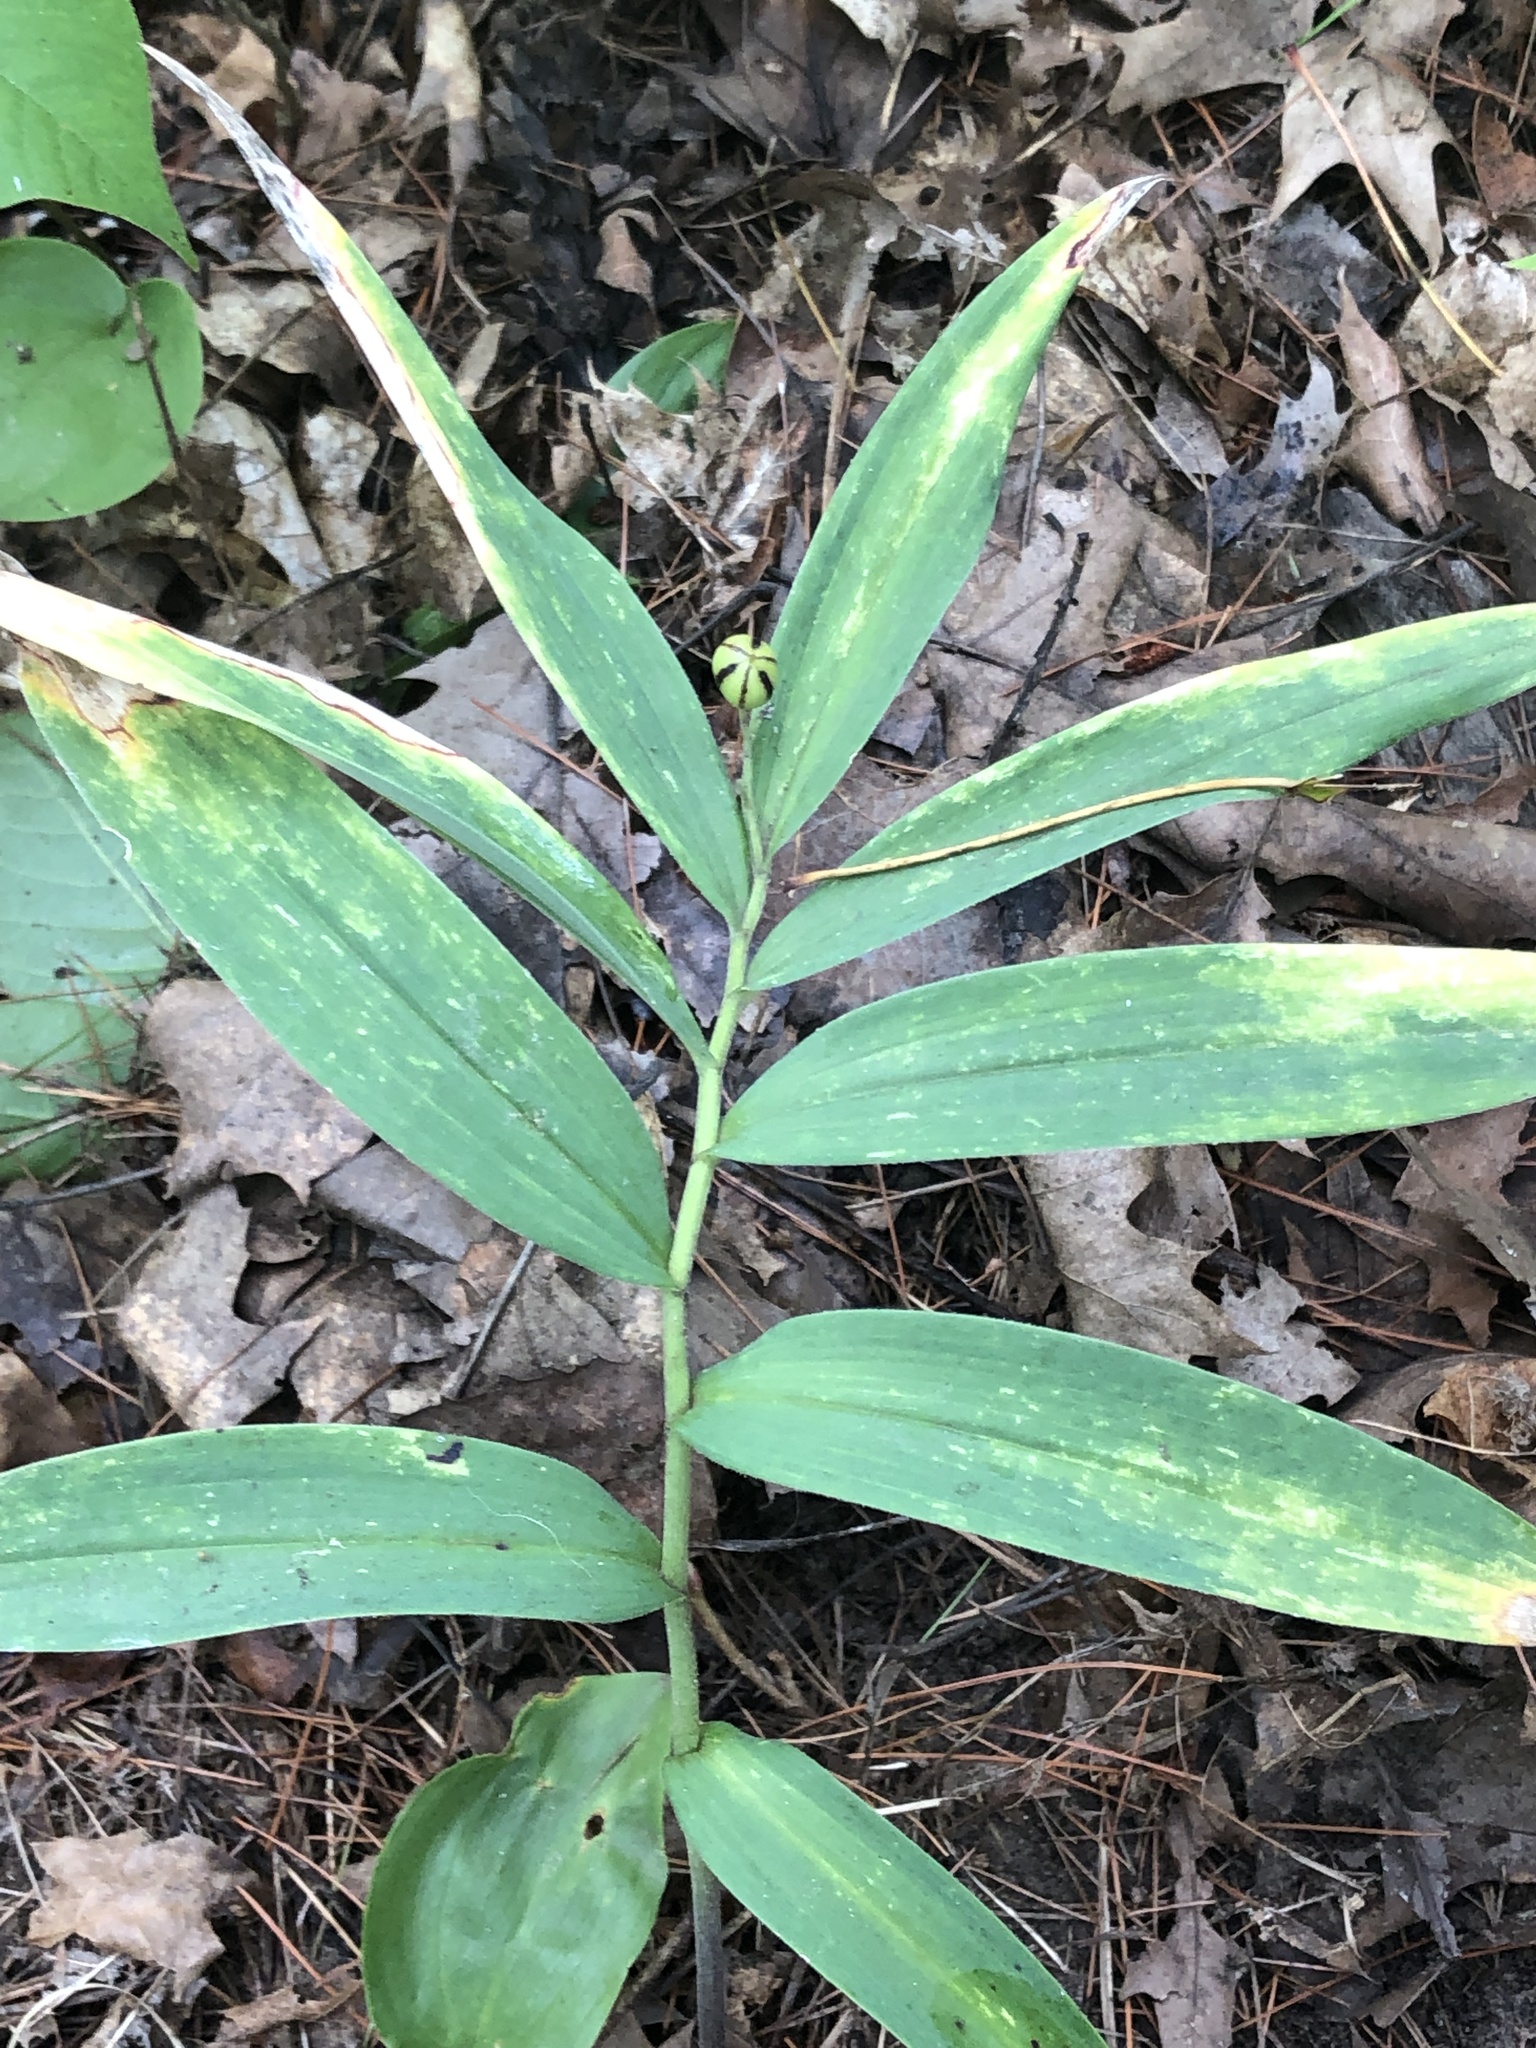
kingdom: Plantae
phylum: Tracheophyta
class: Liliopsida
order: Asparagales
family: Asparagaceae
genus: Maianthemum
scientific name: Maianthemum stellatum
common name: Little false solomon's seal
